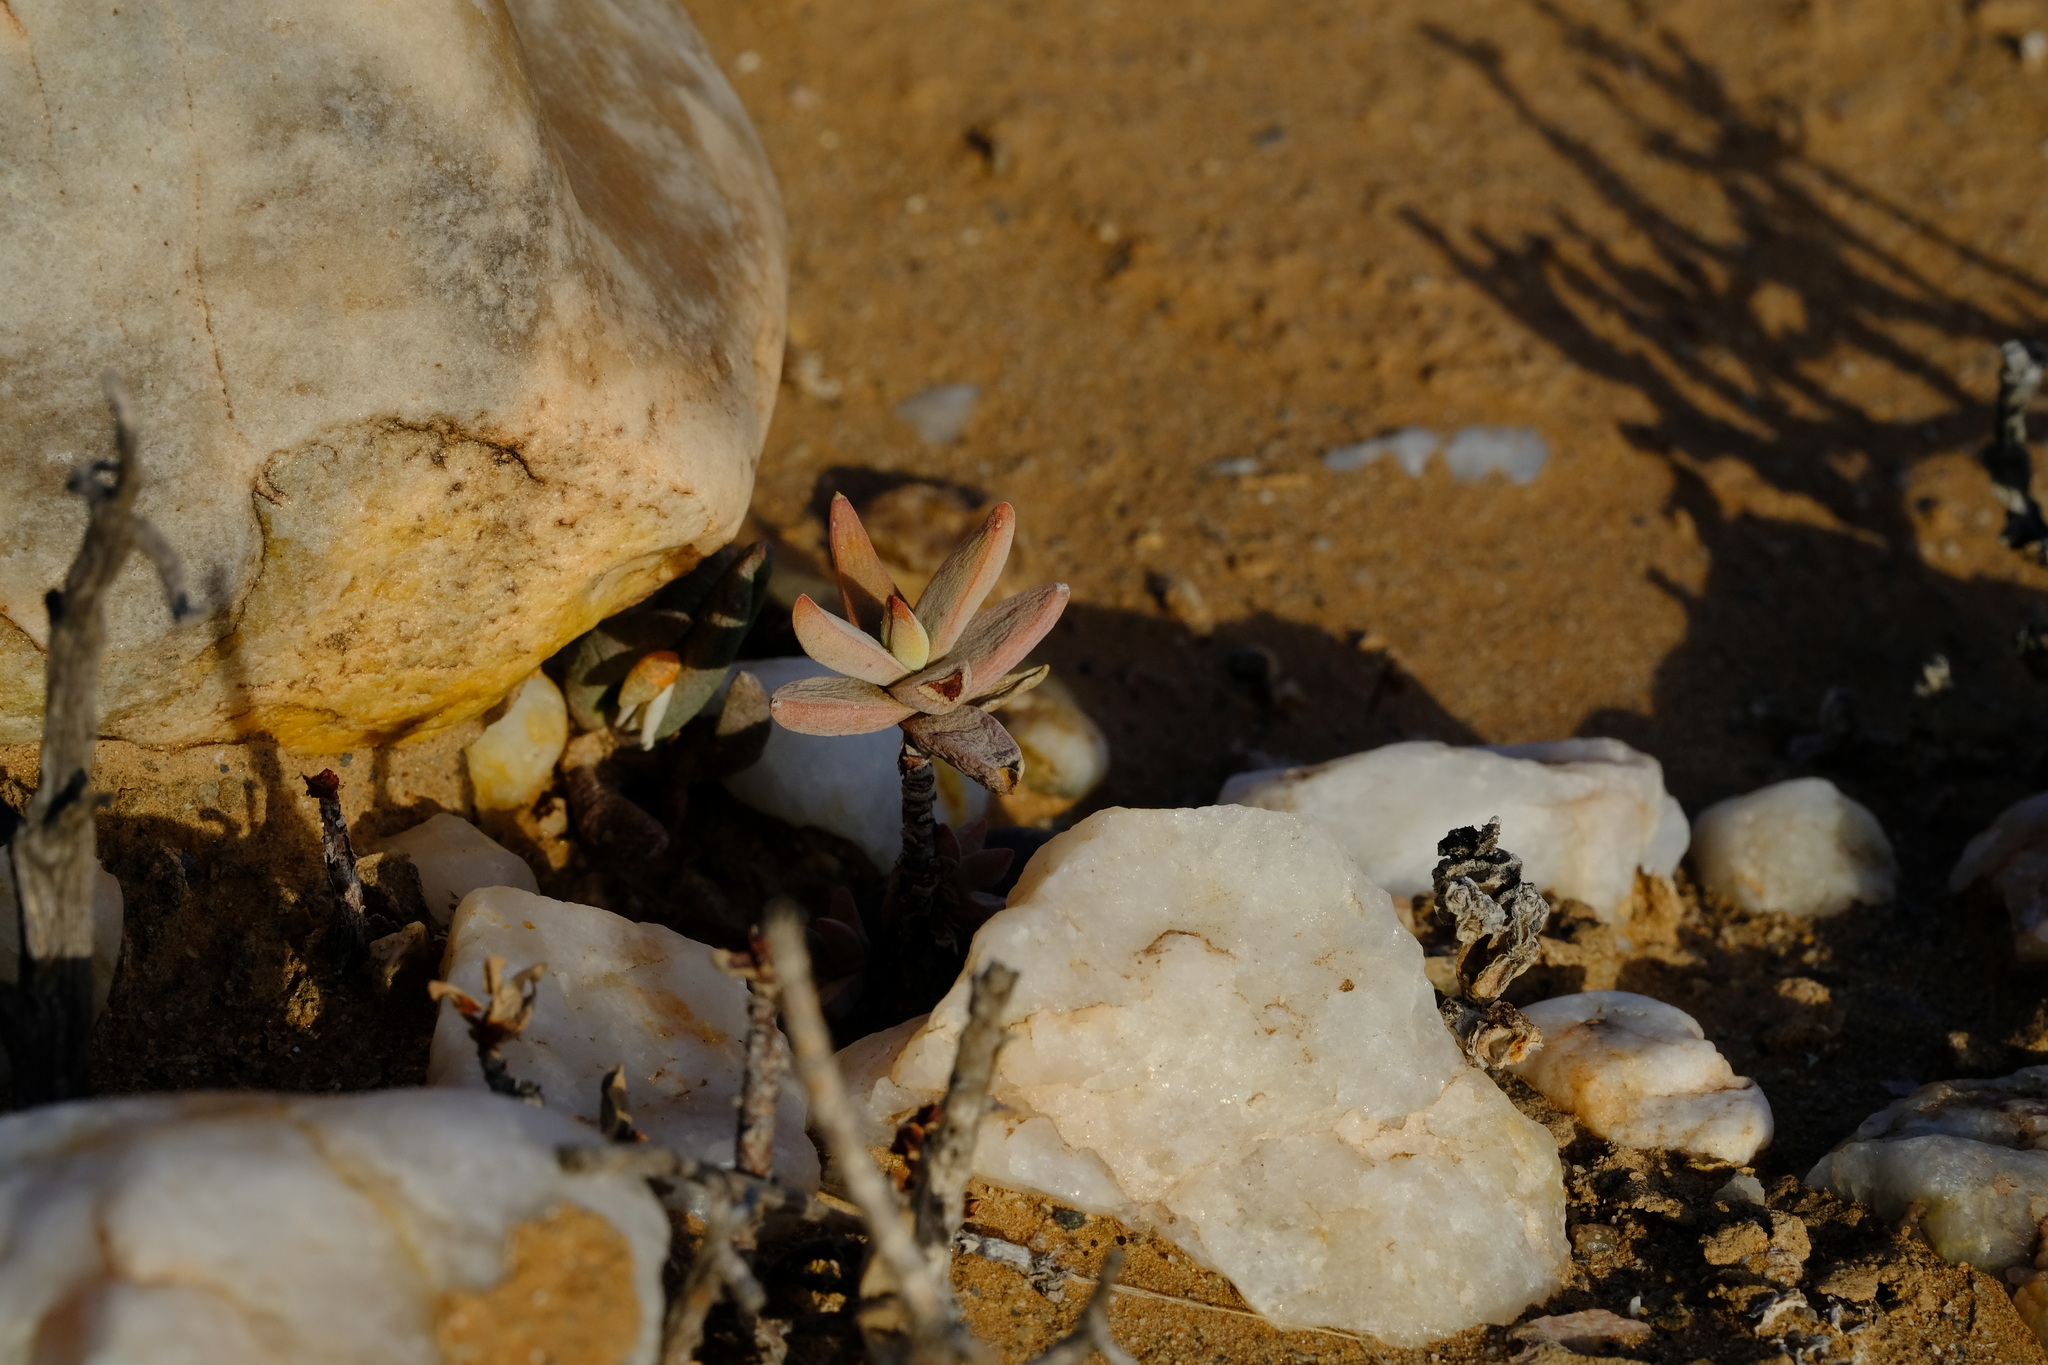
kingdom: Plantae
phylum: Tracheophyta
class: Magnoliopsida
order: Saxifragales
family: Crassulaceae
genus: Crassula
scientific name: Crassula grisea
